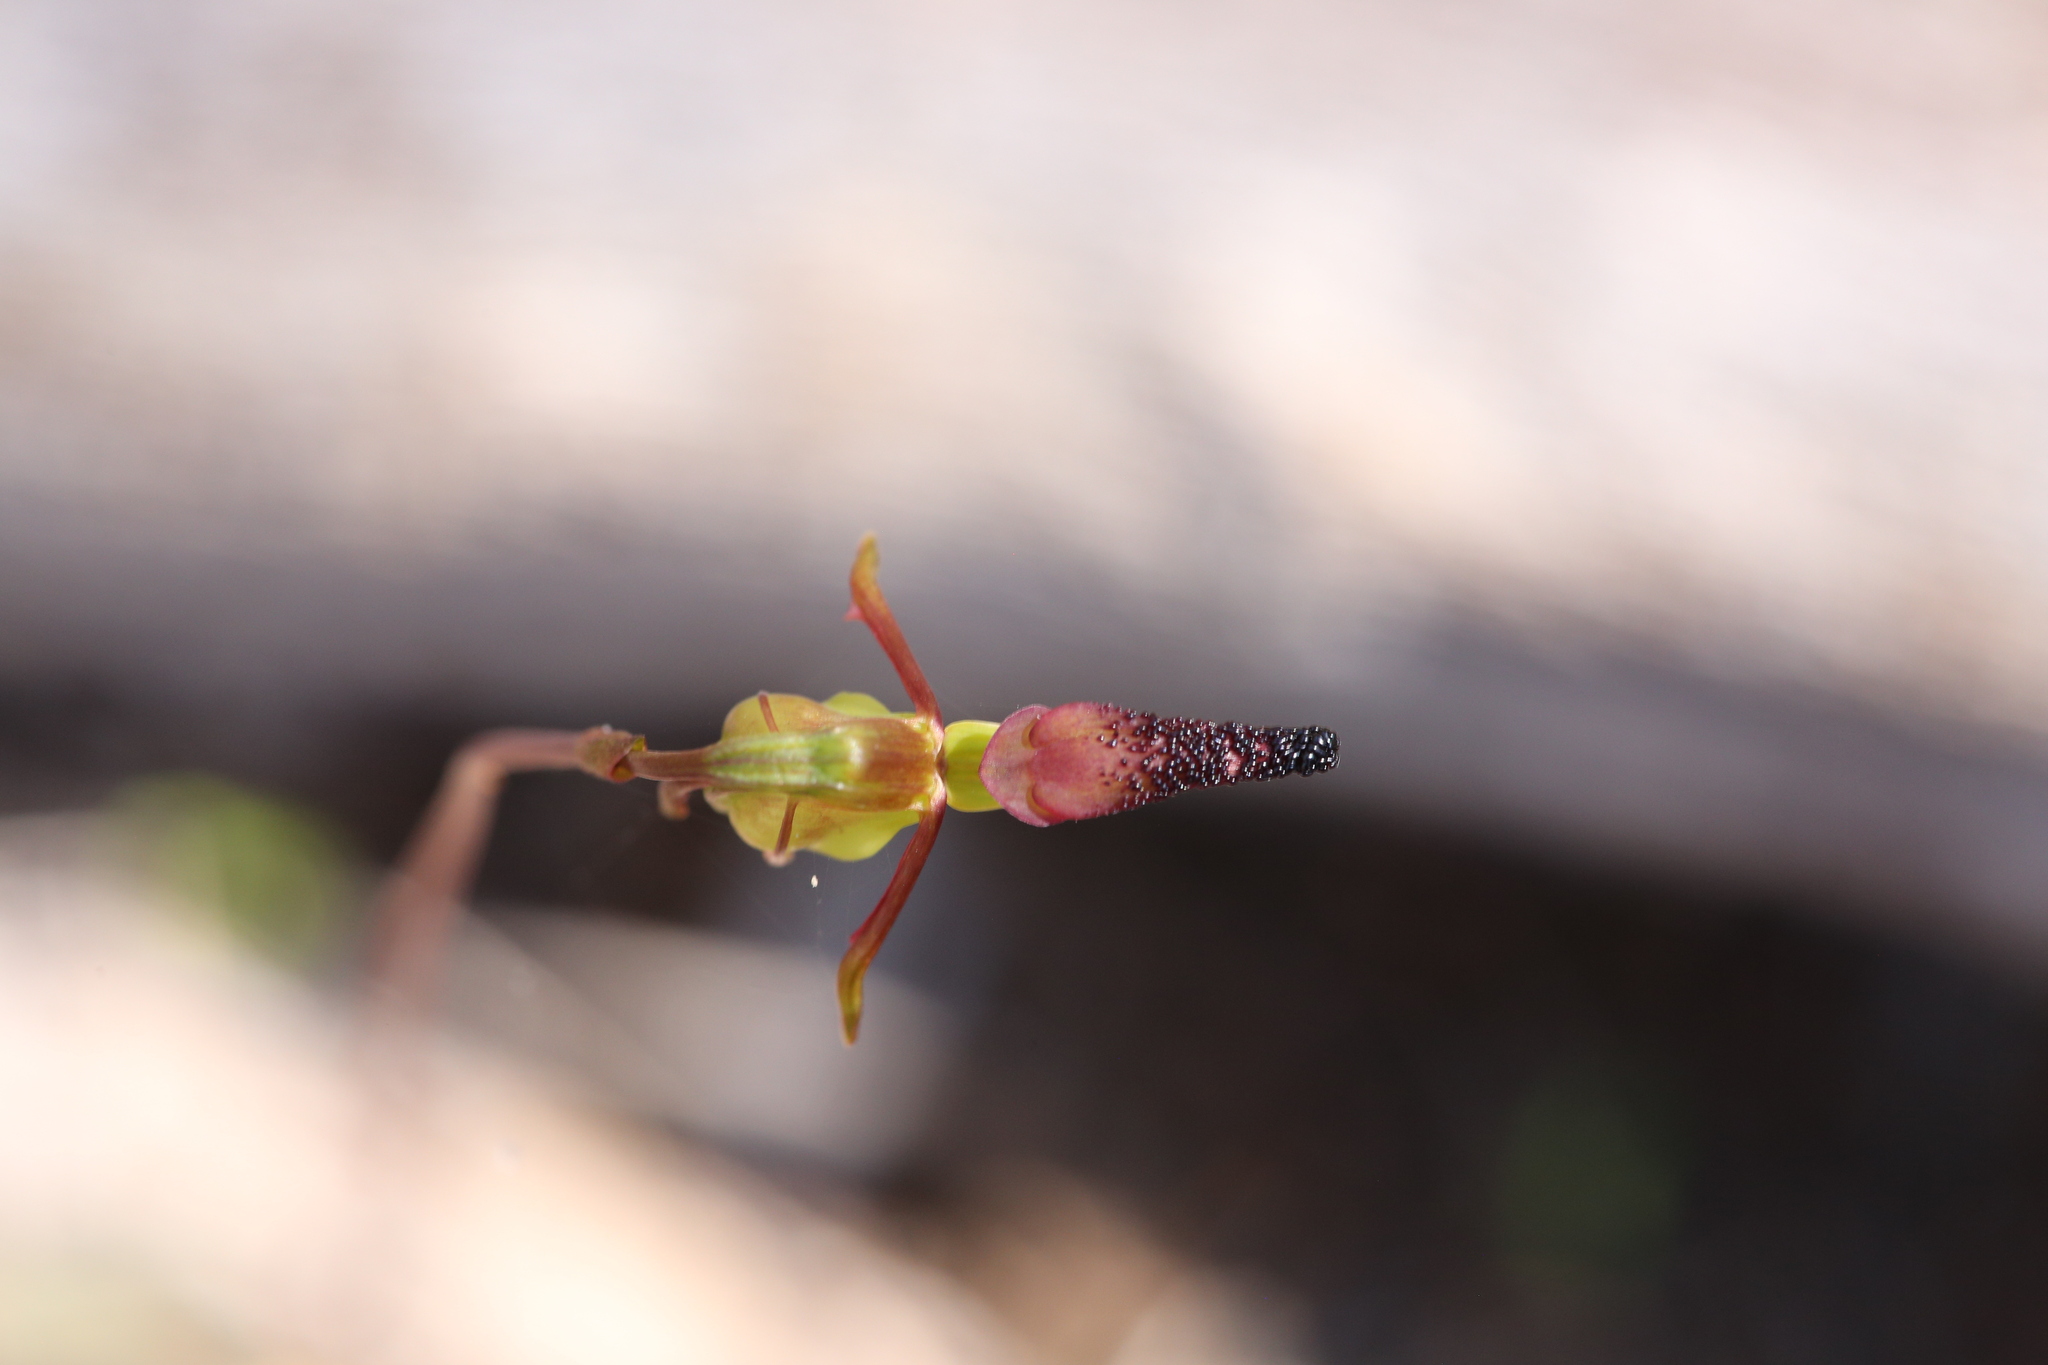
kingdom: Plantae
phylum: Tracheophyta
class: Liliopsida
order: Asparagales
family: Orchidaceae
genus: Caleana
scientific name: Caleana nigrita
